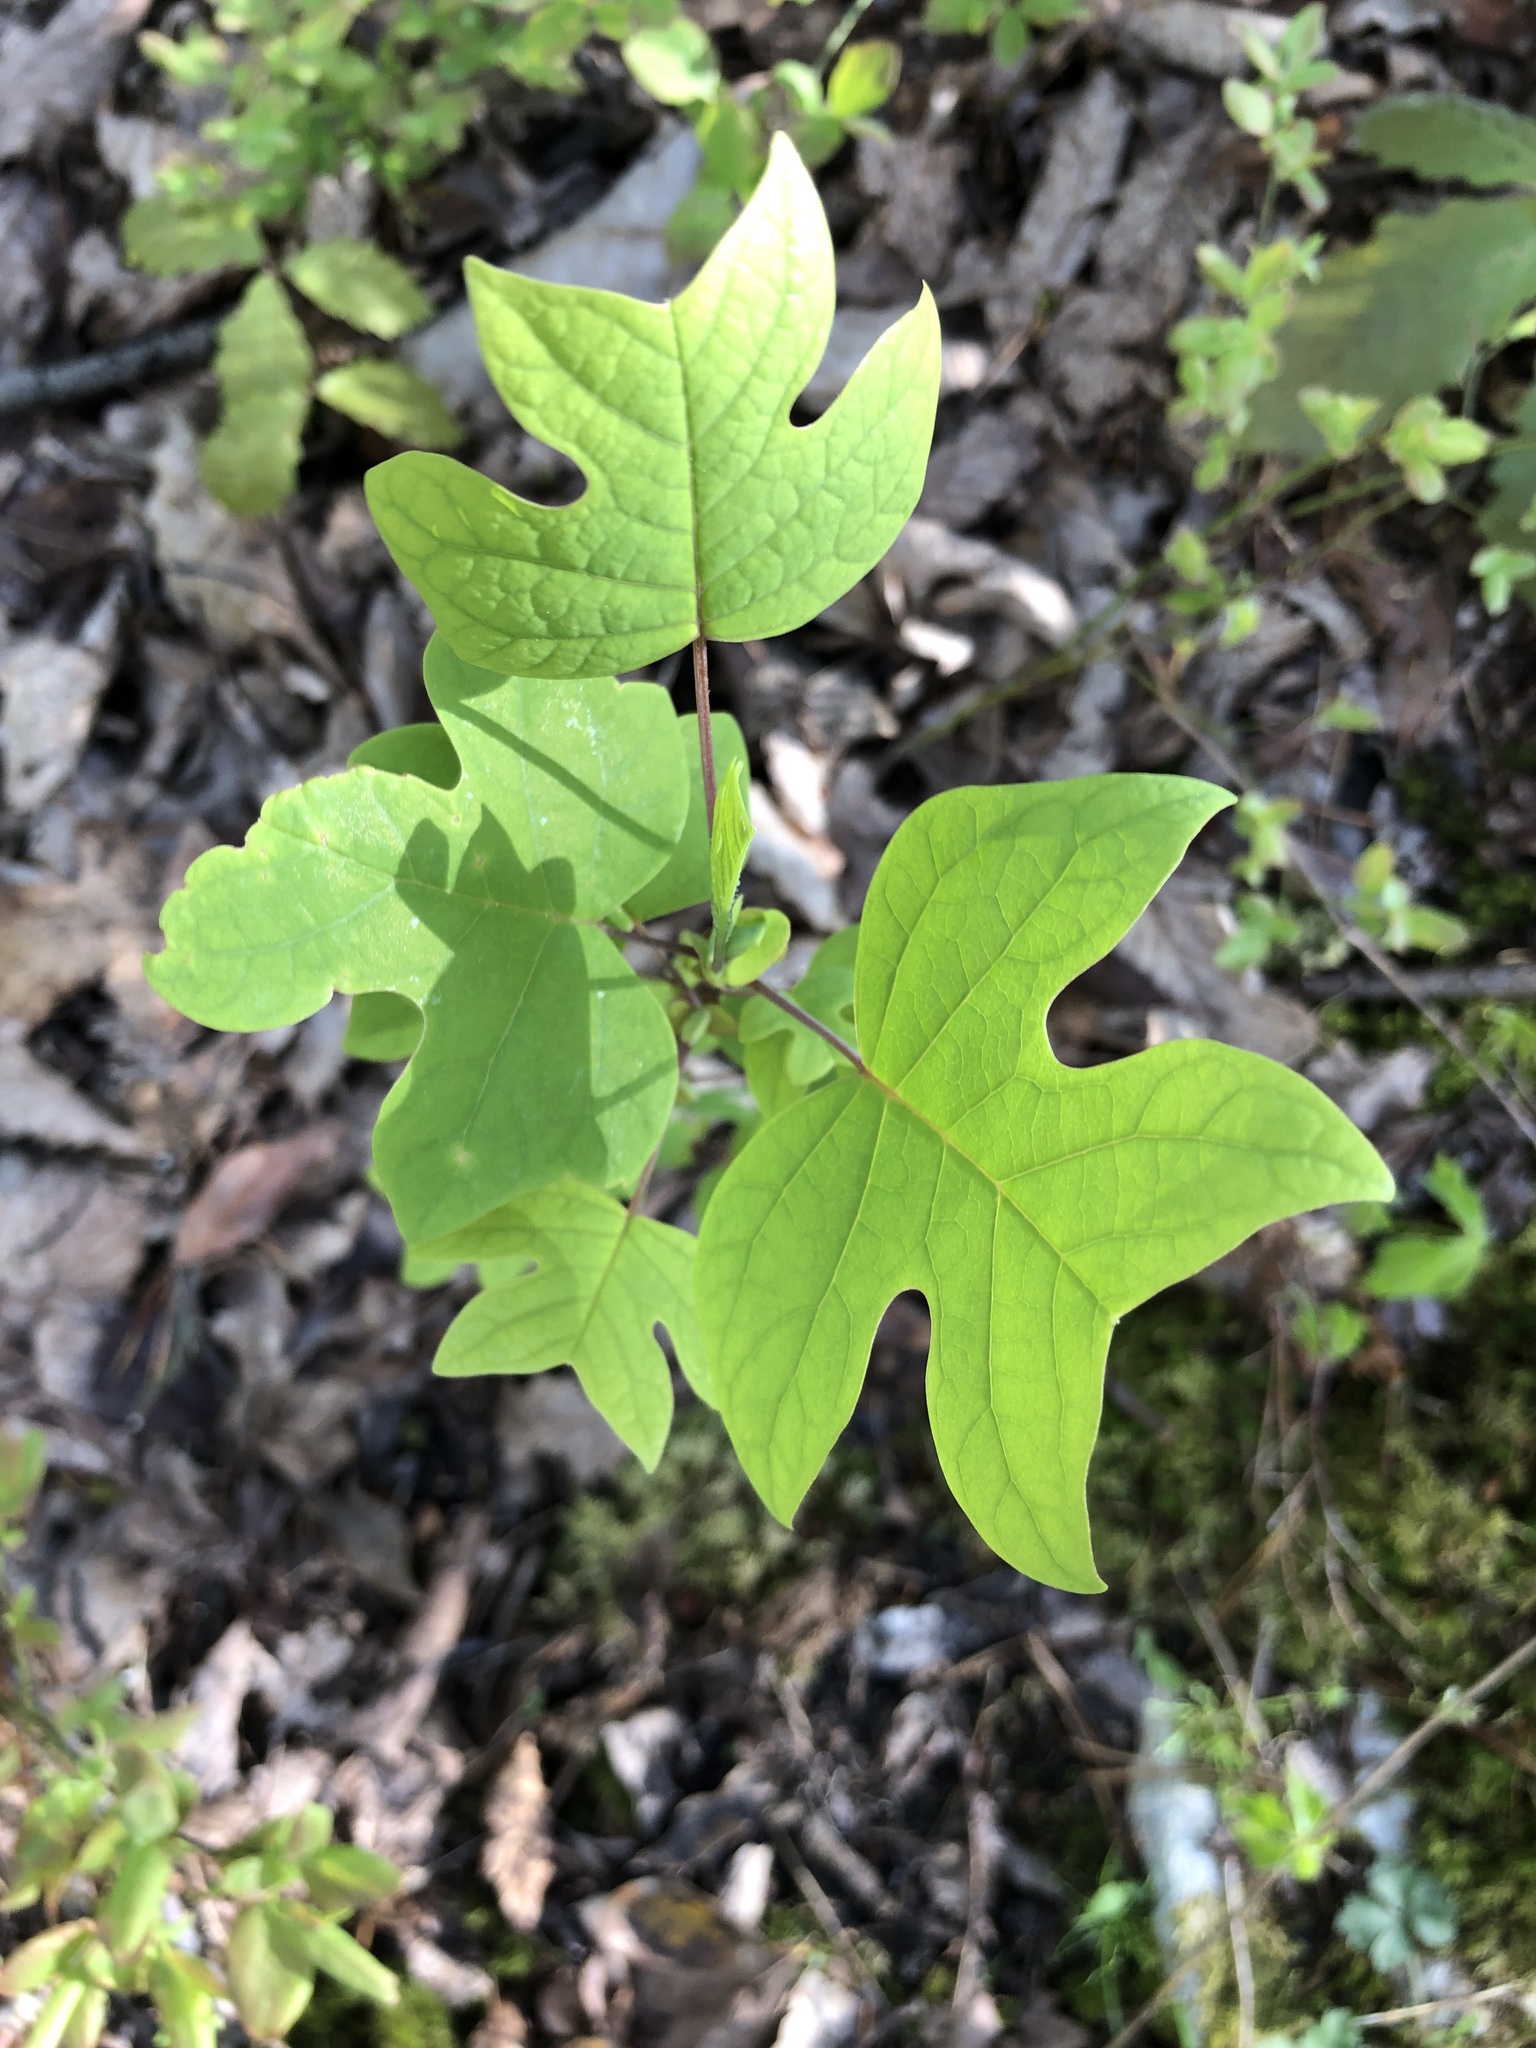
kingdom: Plantae
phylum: Tracheophyta
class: Magnoliopsida
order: Magnoliales
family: Magnoliaceae
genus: Liriodendron
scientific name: Liriodendron tulipifera
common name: Tulip tree
